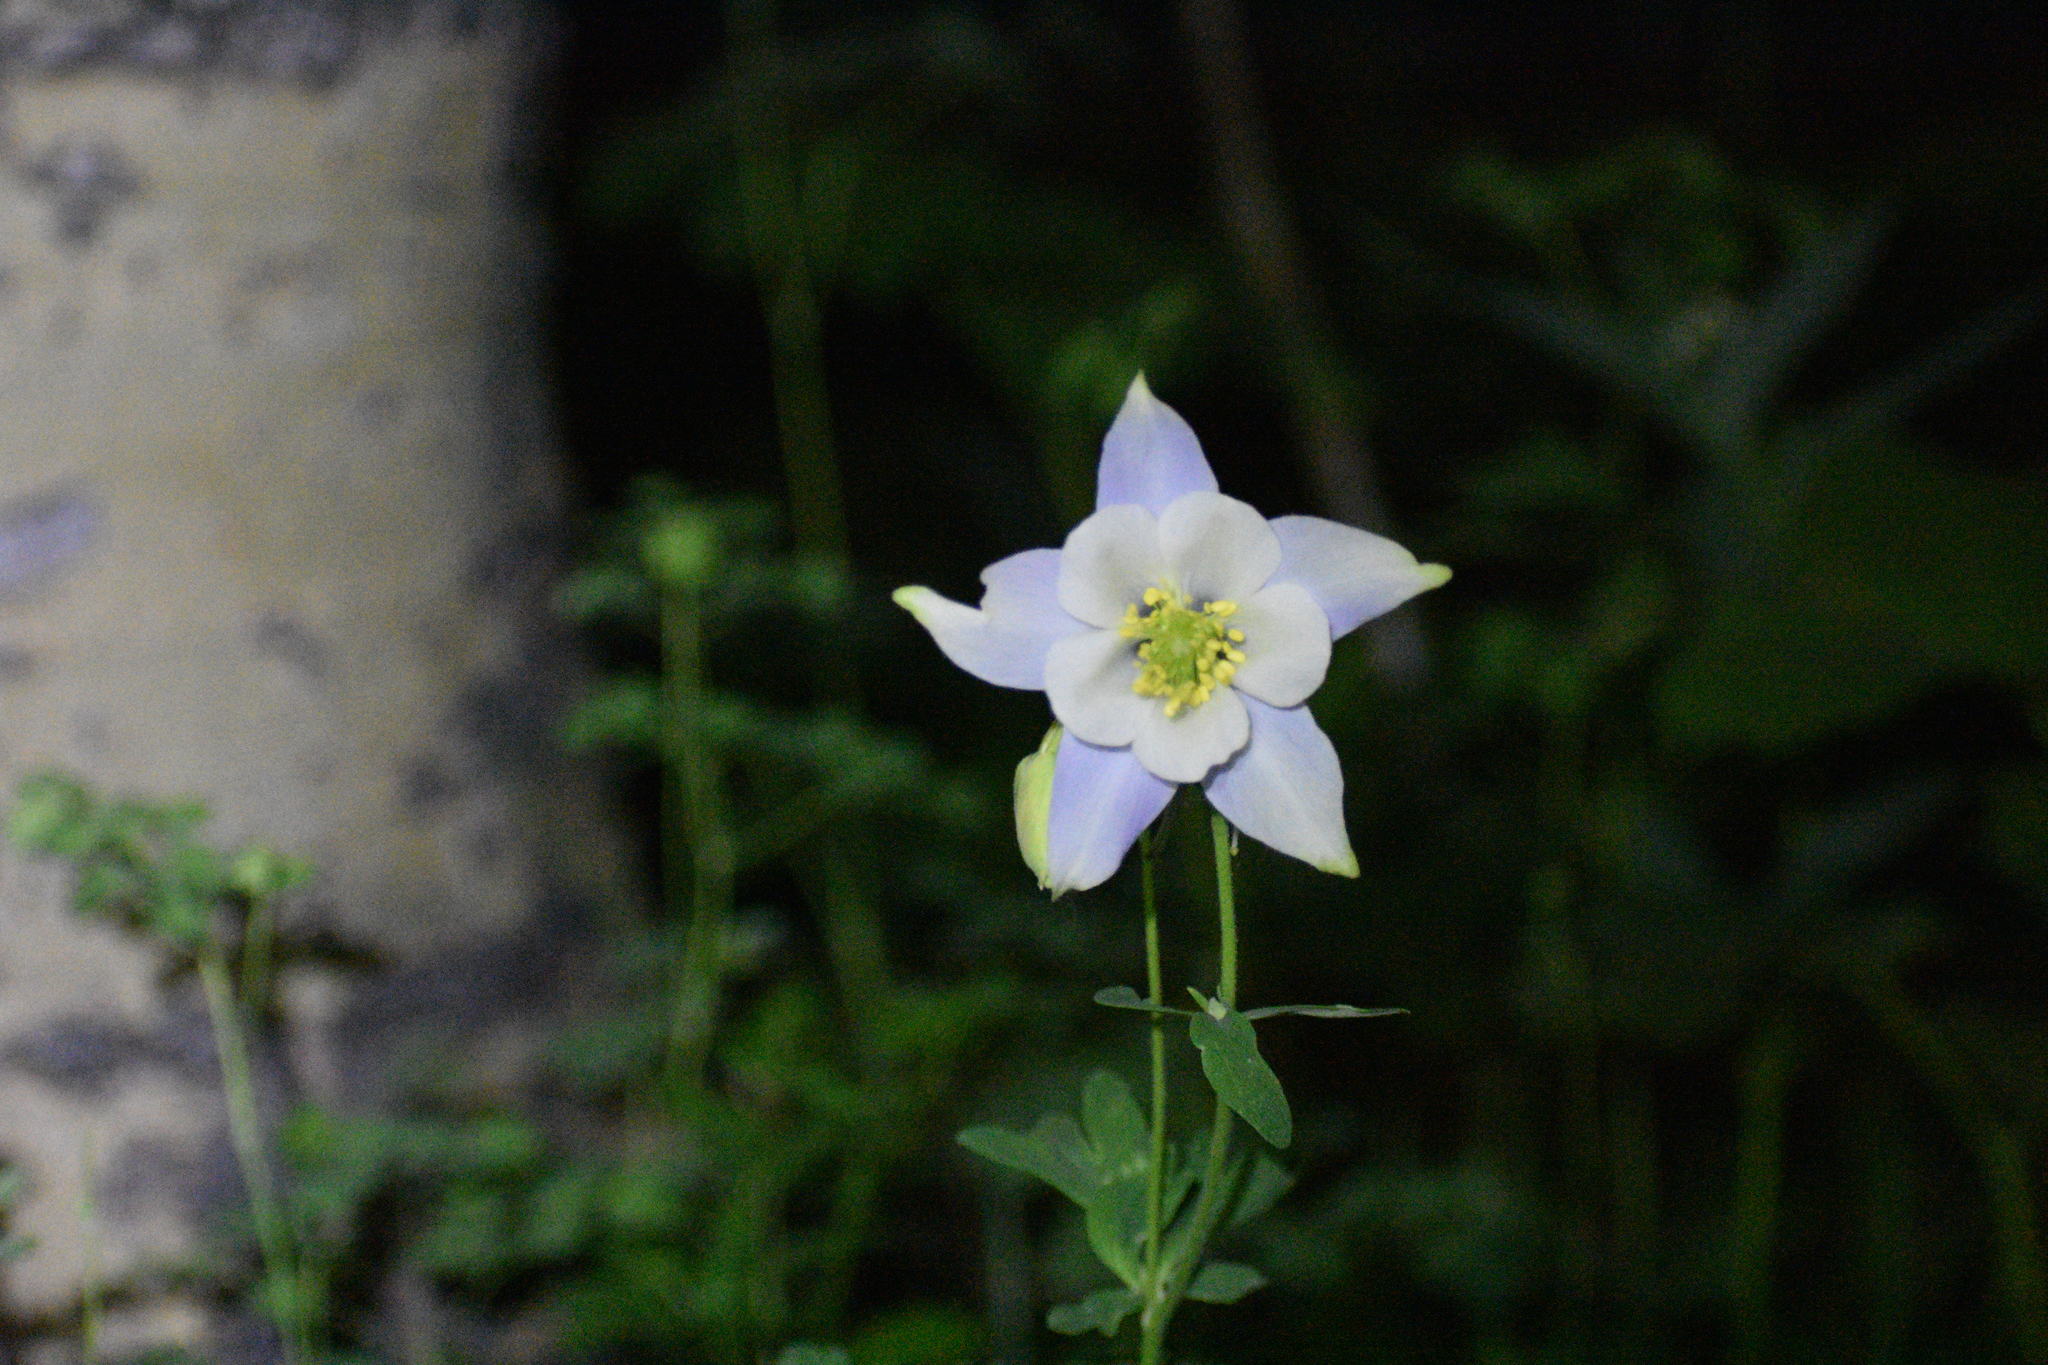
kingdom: Plantae
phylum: Tracheophyta
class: Magnoliopsida
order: Ranunculales
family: Ranunculaceae
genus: Aquilegia
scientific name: Aquilegia coerulea
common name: Rocky mountain columbine
